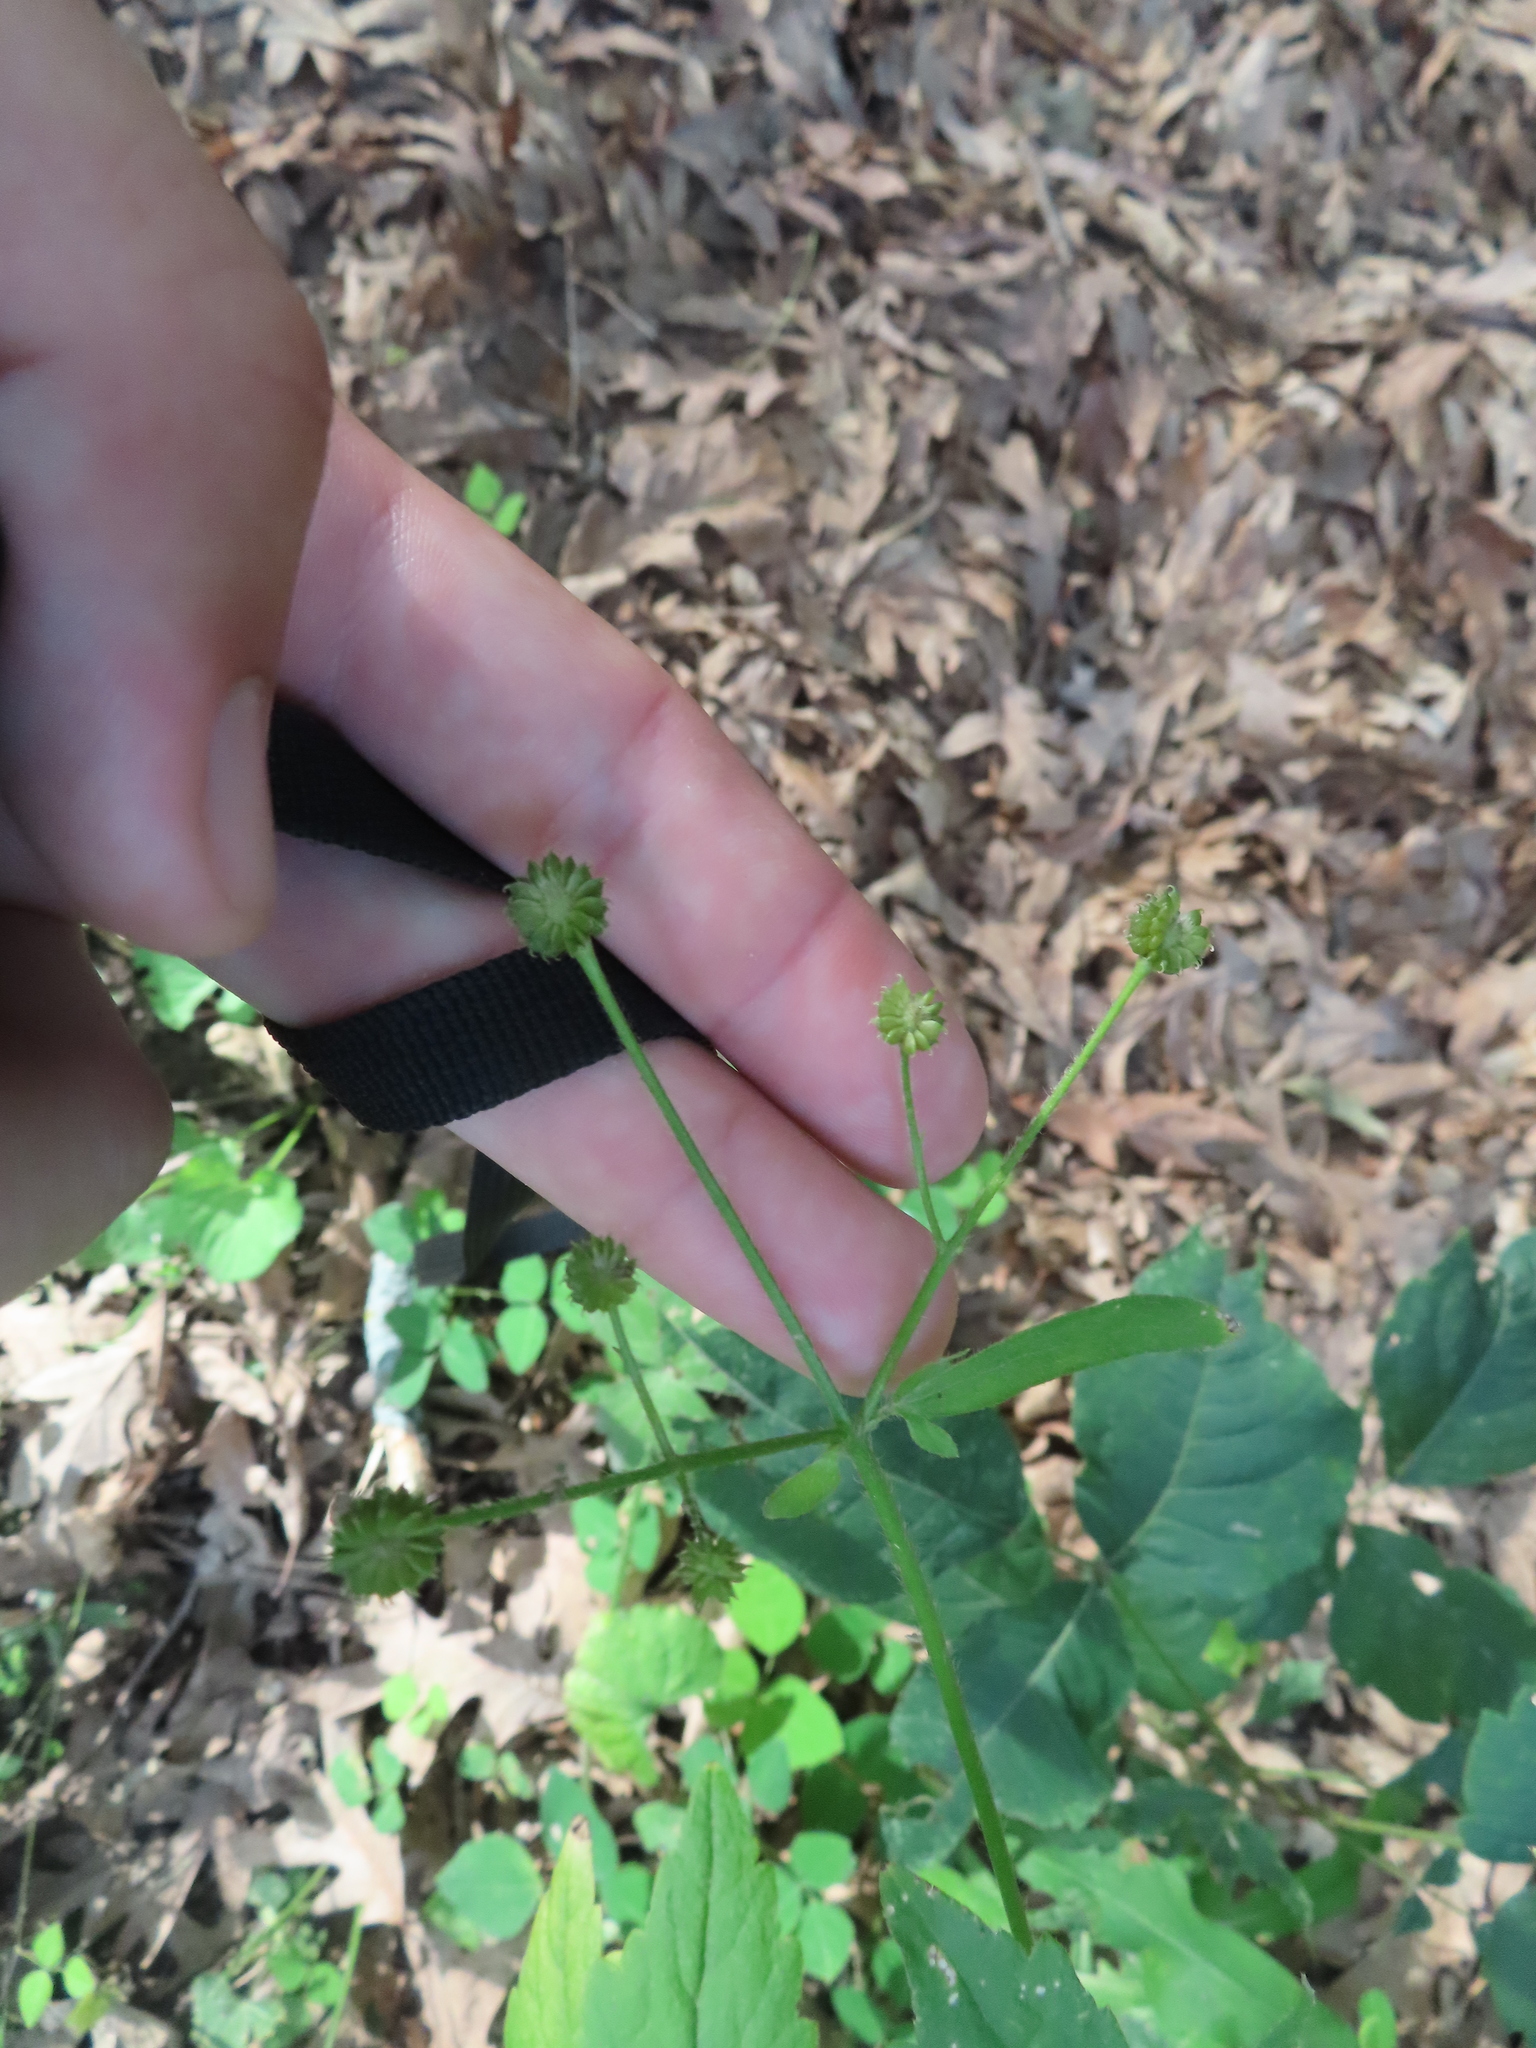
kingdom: Plantae
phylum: Tracheophyta
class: Magnoliopsida
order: Ranunculales
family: Ranunculaceae
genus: Ranunculus
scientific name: Ranunculus recurvatus
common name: Blisterwort
